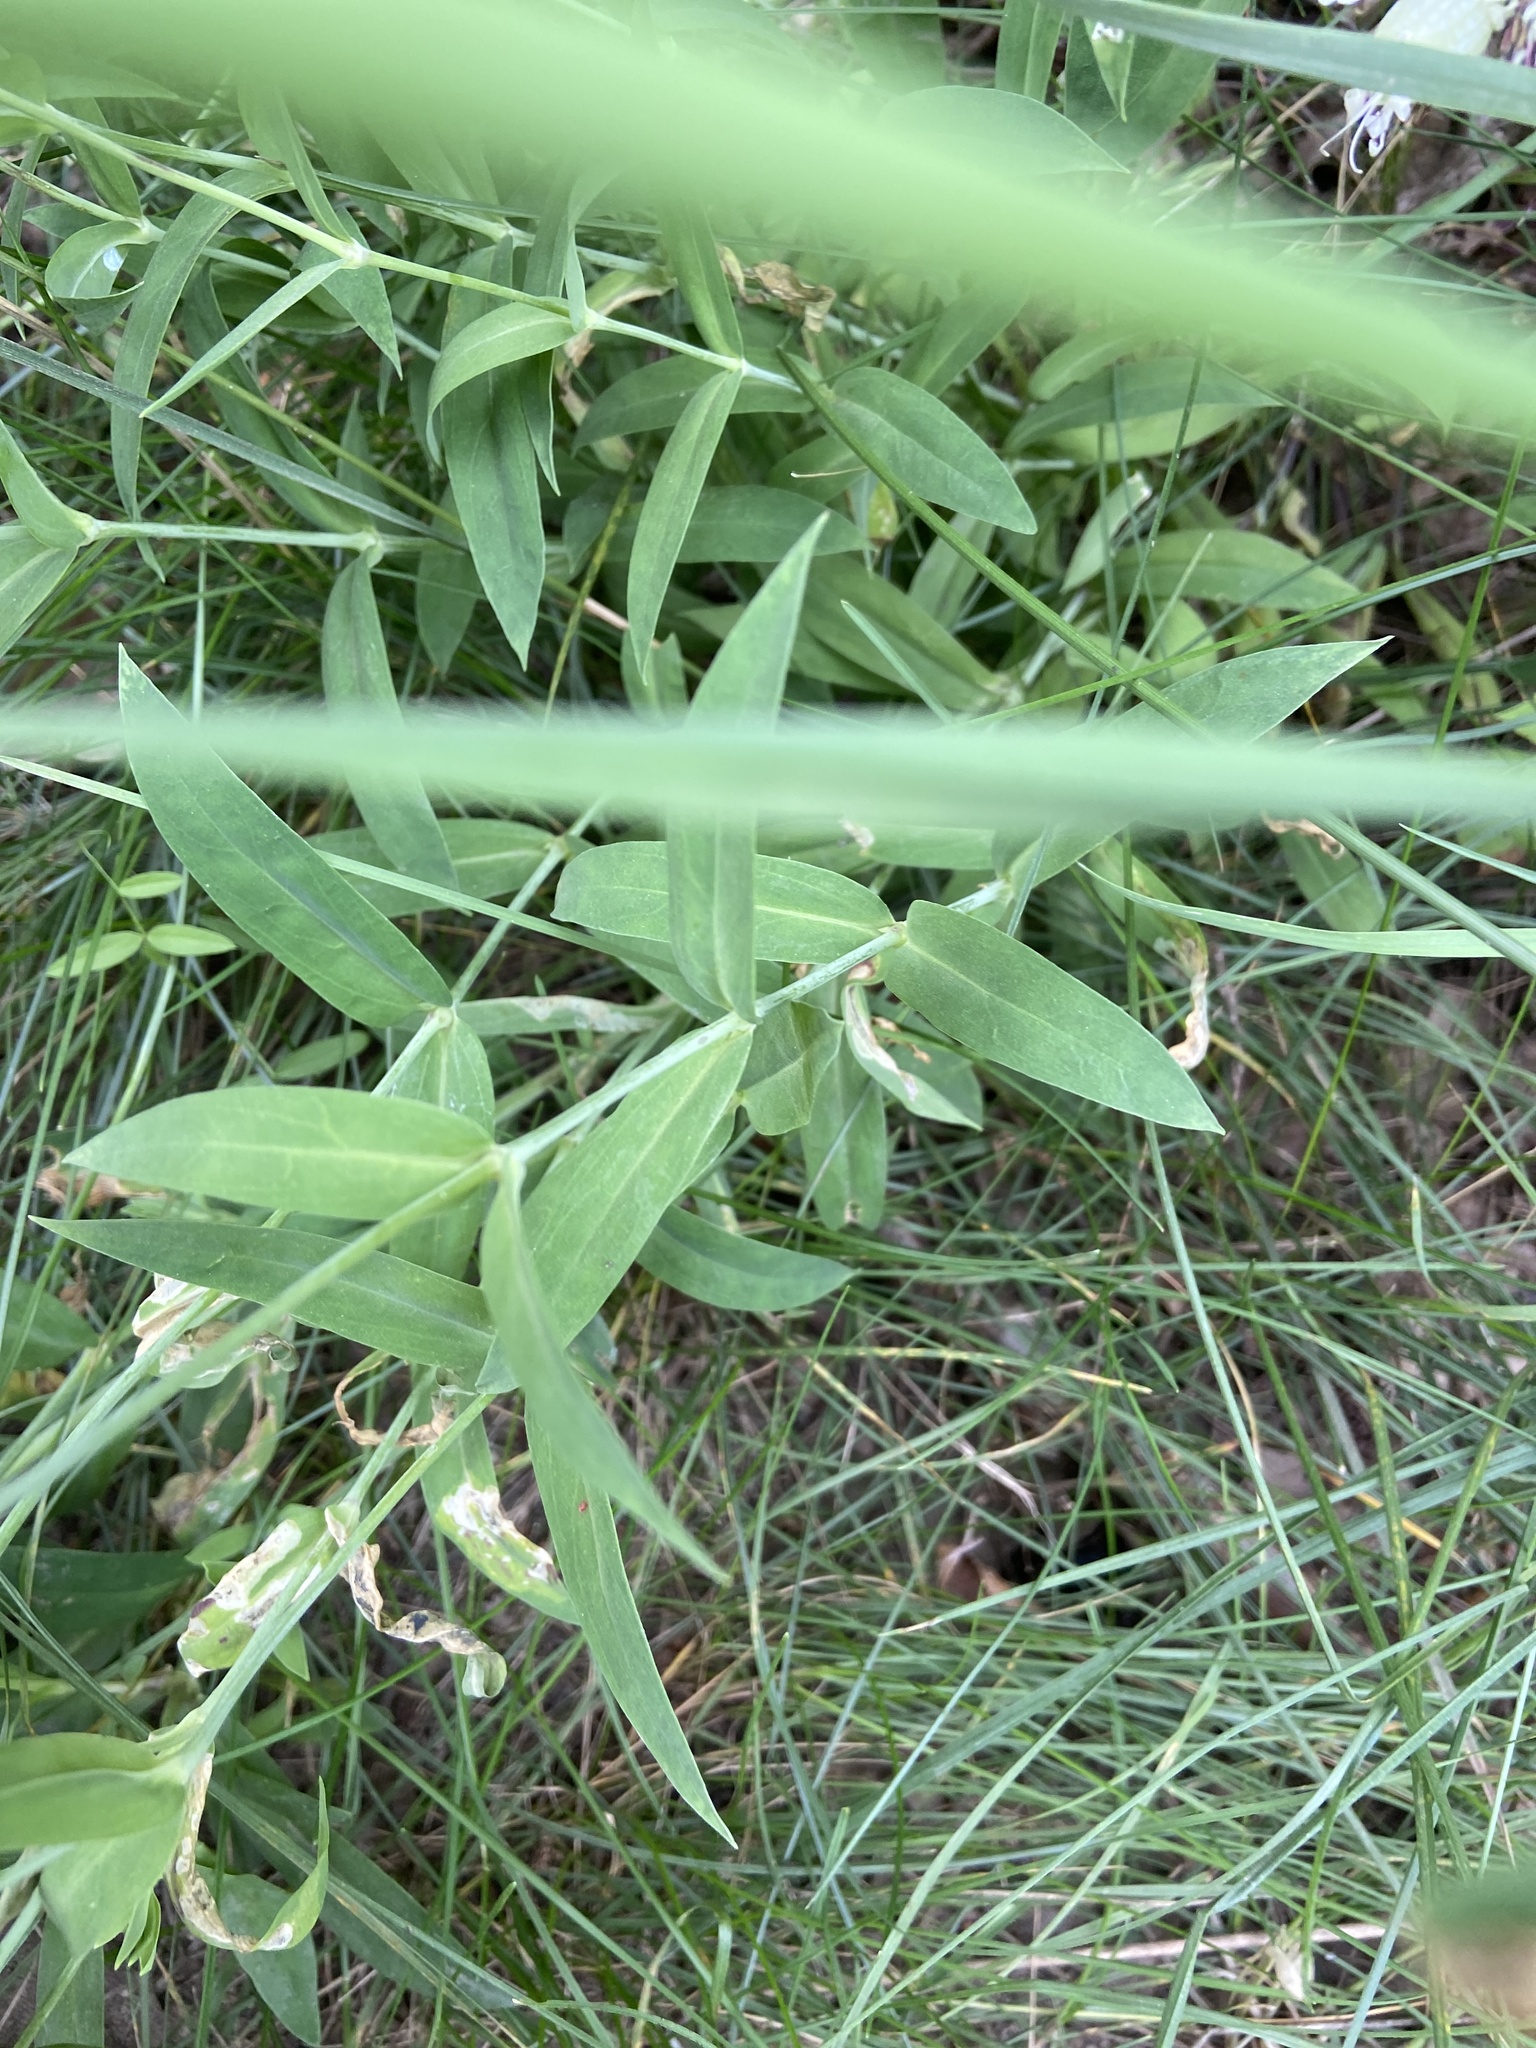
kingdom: Plantae
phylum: Tracheophyta
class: Magnoliopsida
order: Caryophyllales
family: Caryophyllaceae
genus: Silene
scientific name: Silene vulgaris
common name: Bladder campion
